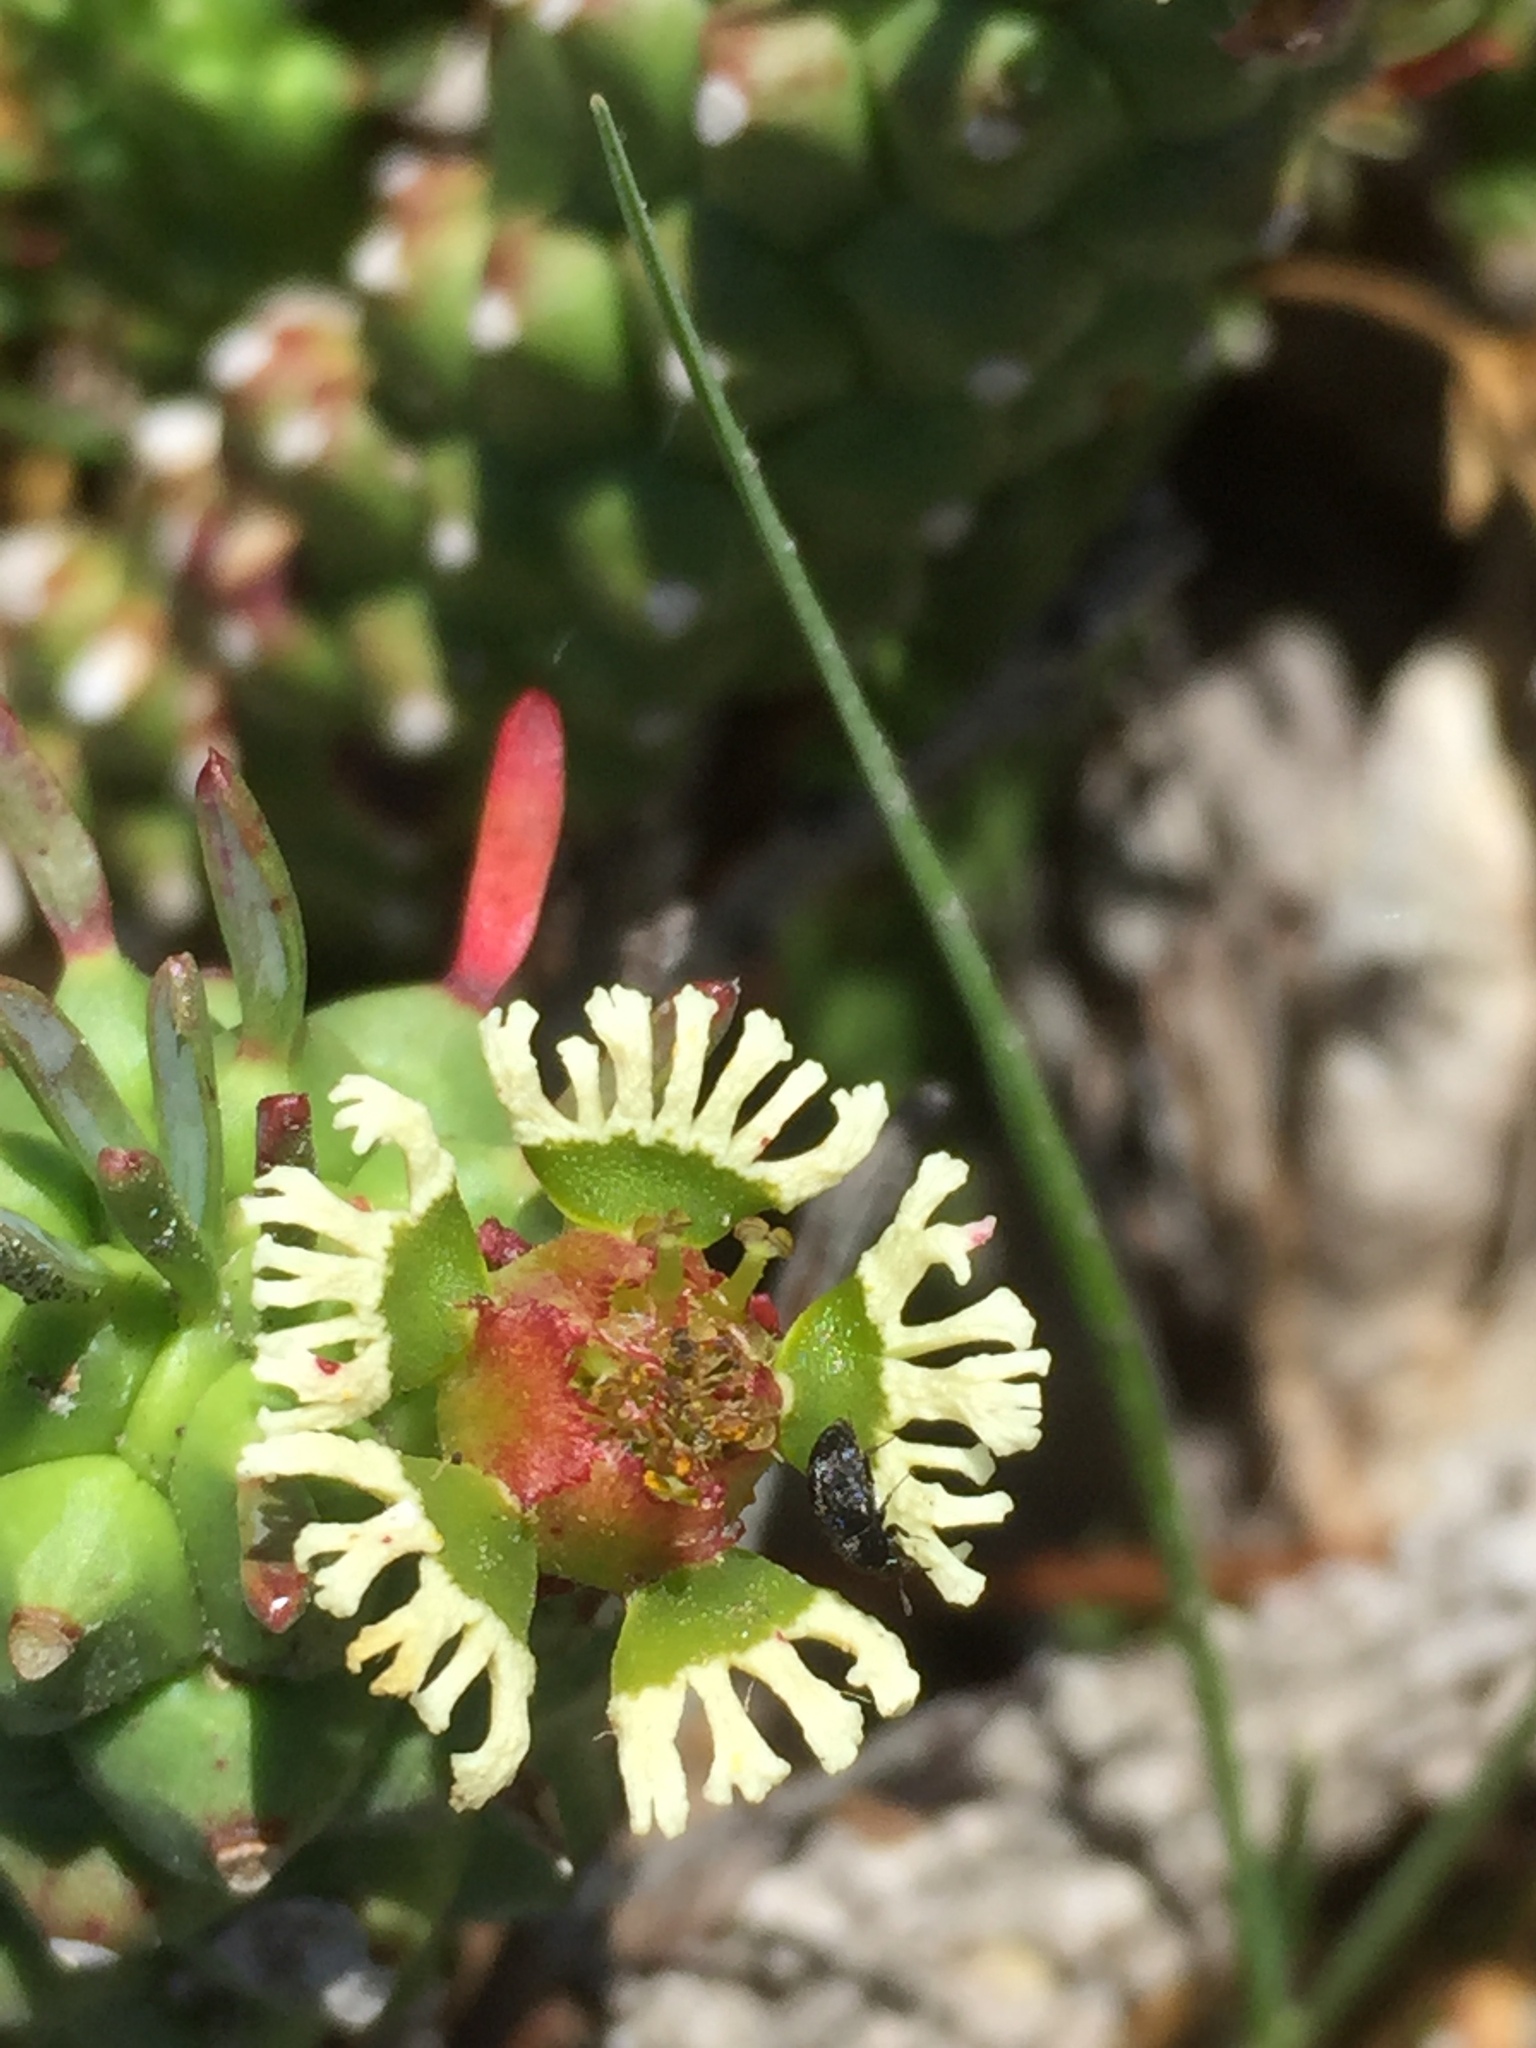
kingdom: Plantae
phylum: Tracheophyta
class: Magnoliopsida
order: Malpighiales
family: Euphorbiaceae
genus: Euphorbia
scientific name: Euphorbia caput-medusae
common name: Medusa's-head
